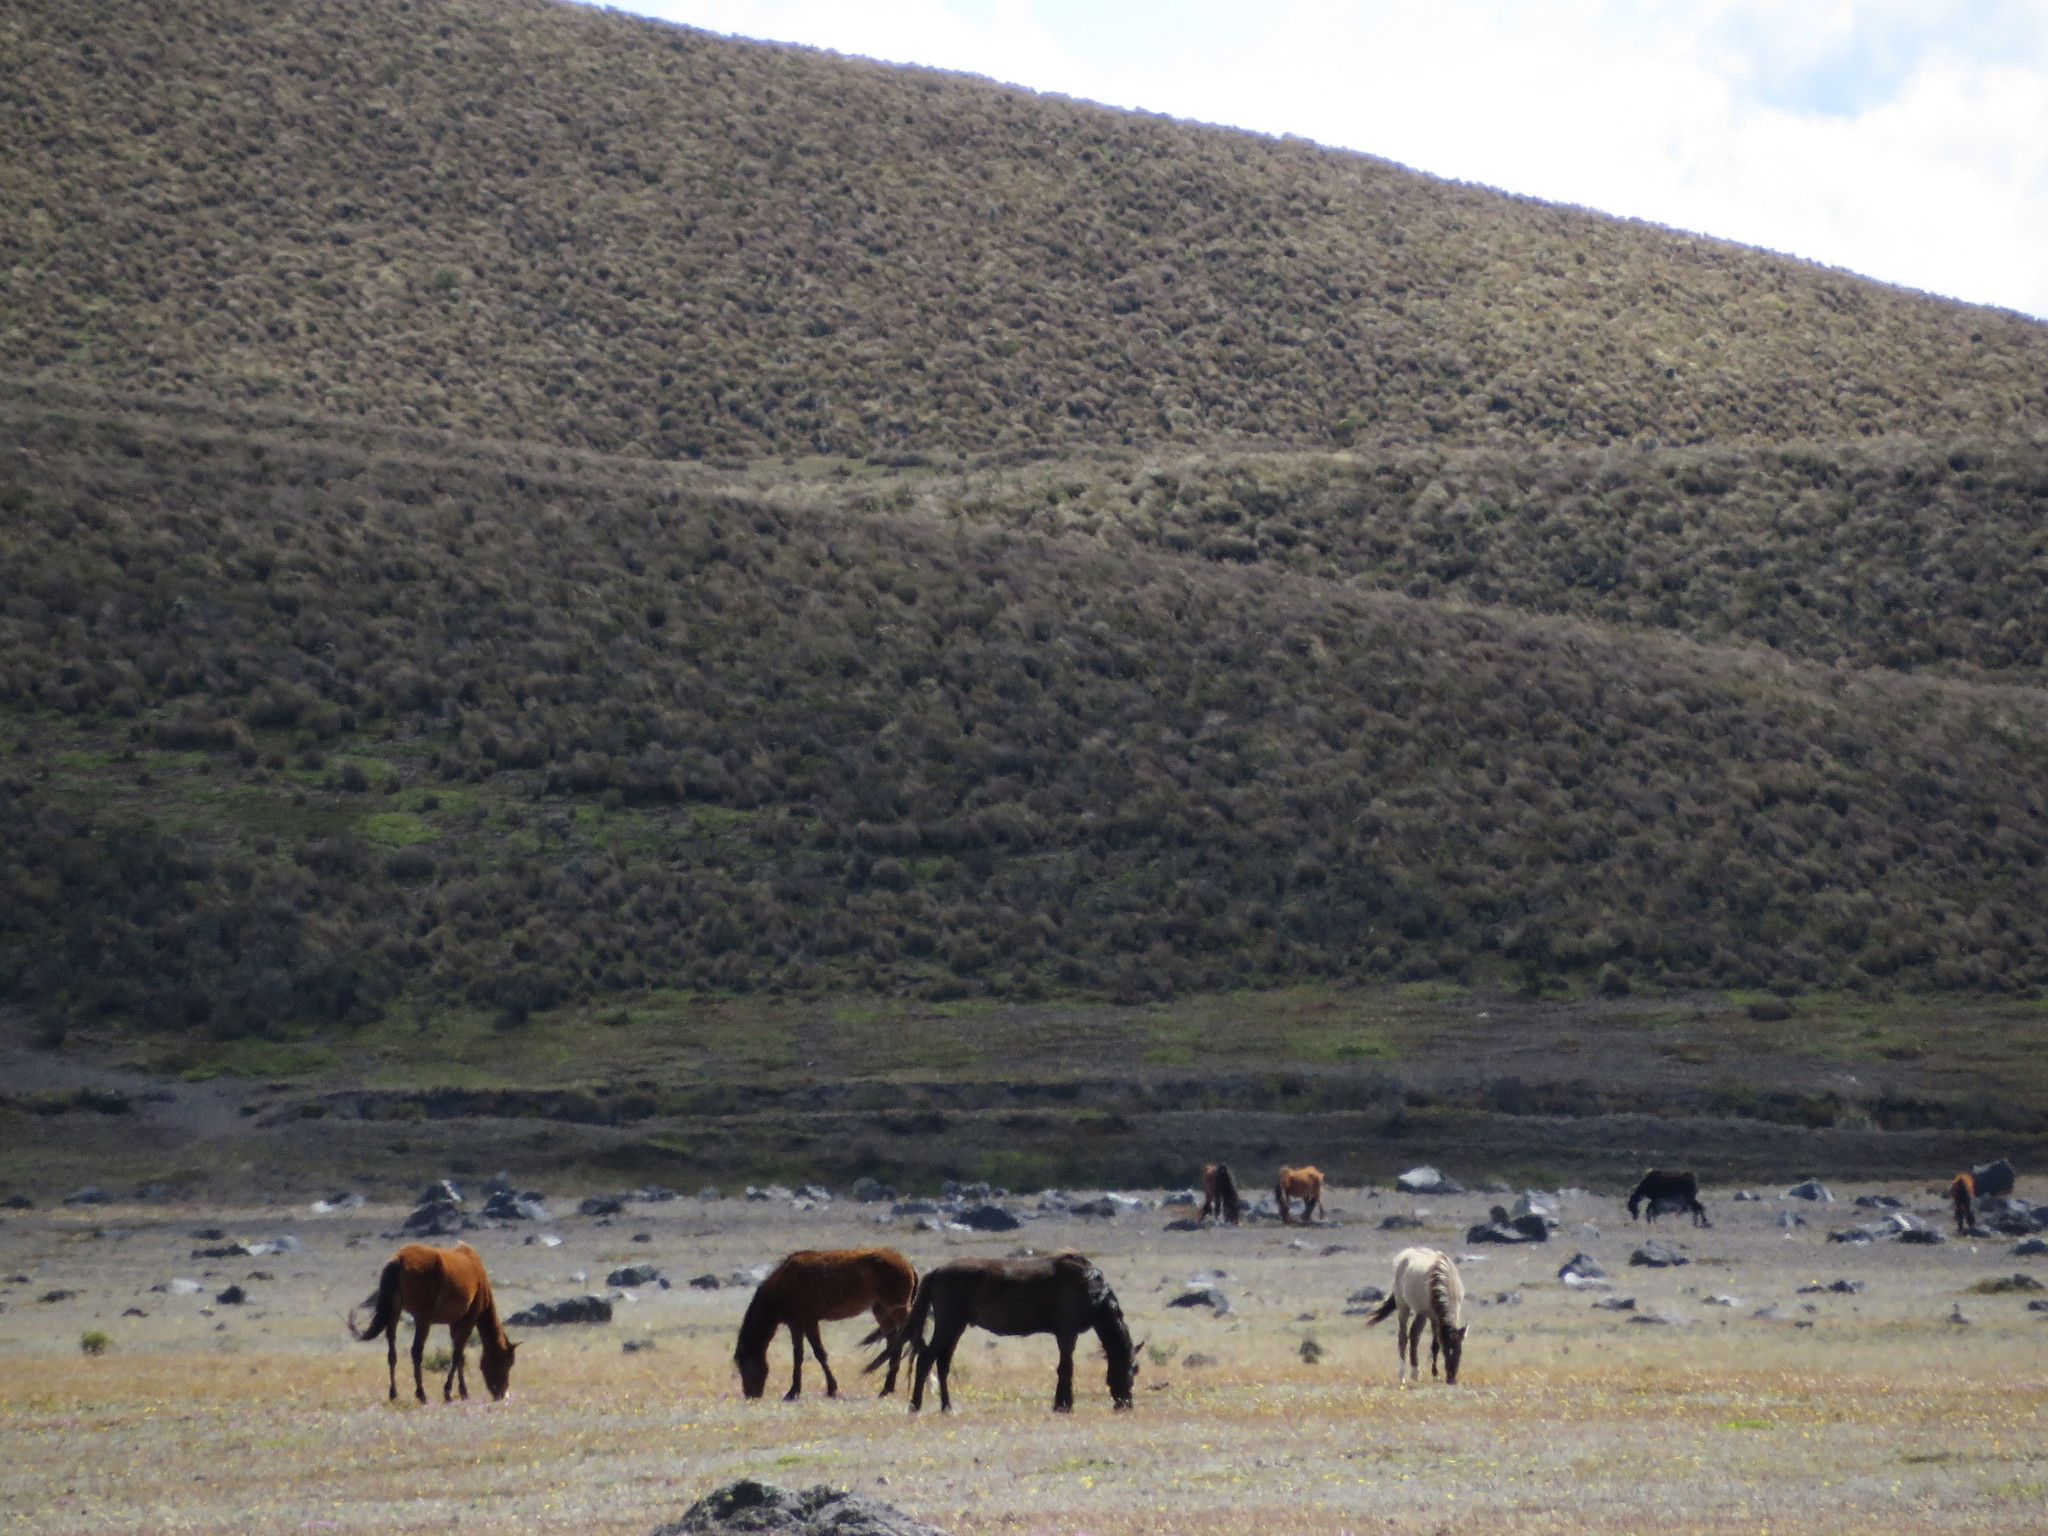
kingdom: Animalia
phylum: Chordata
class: Mammalia
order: Perissodactyla
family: Equidae
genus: Equus
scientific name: Equus caballus
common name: Horse
